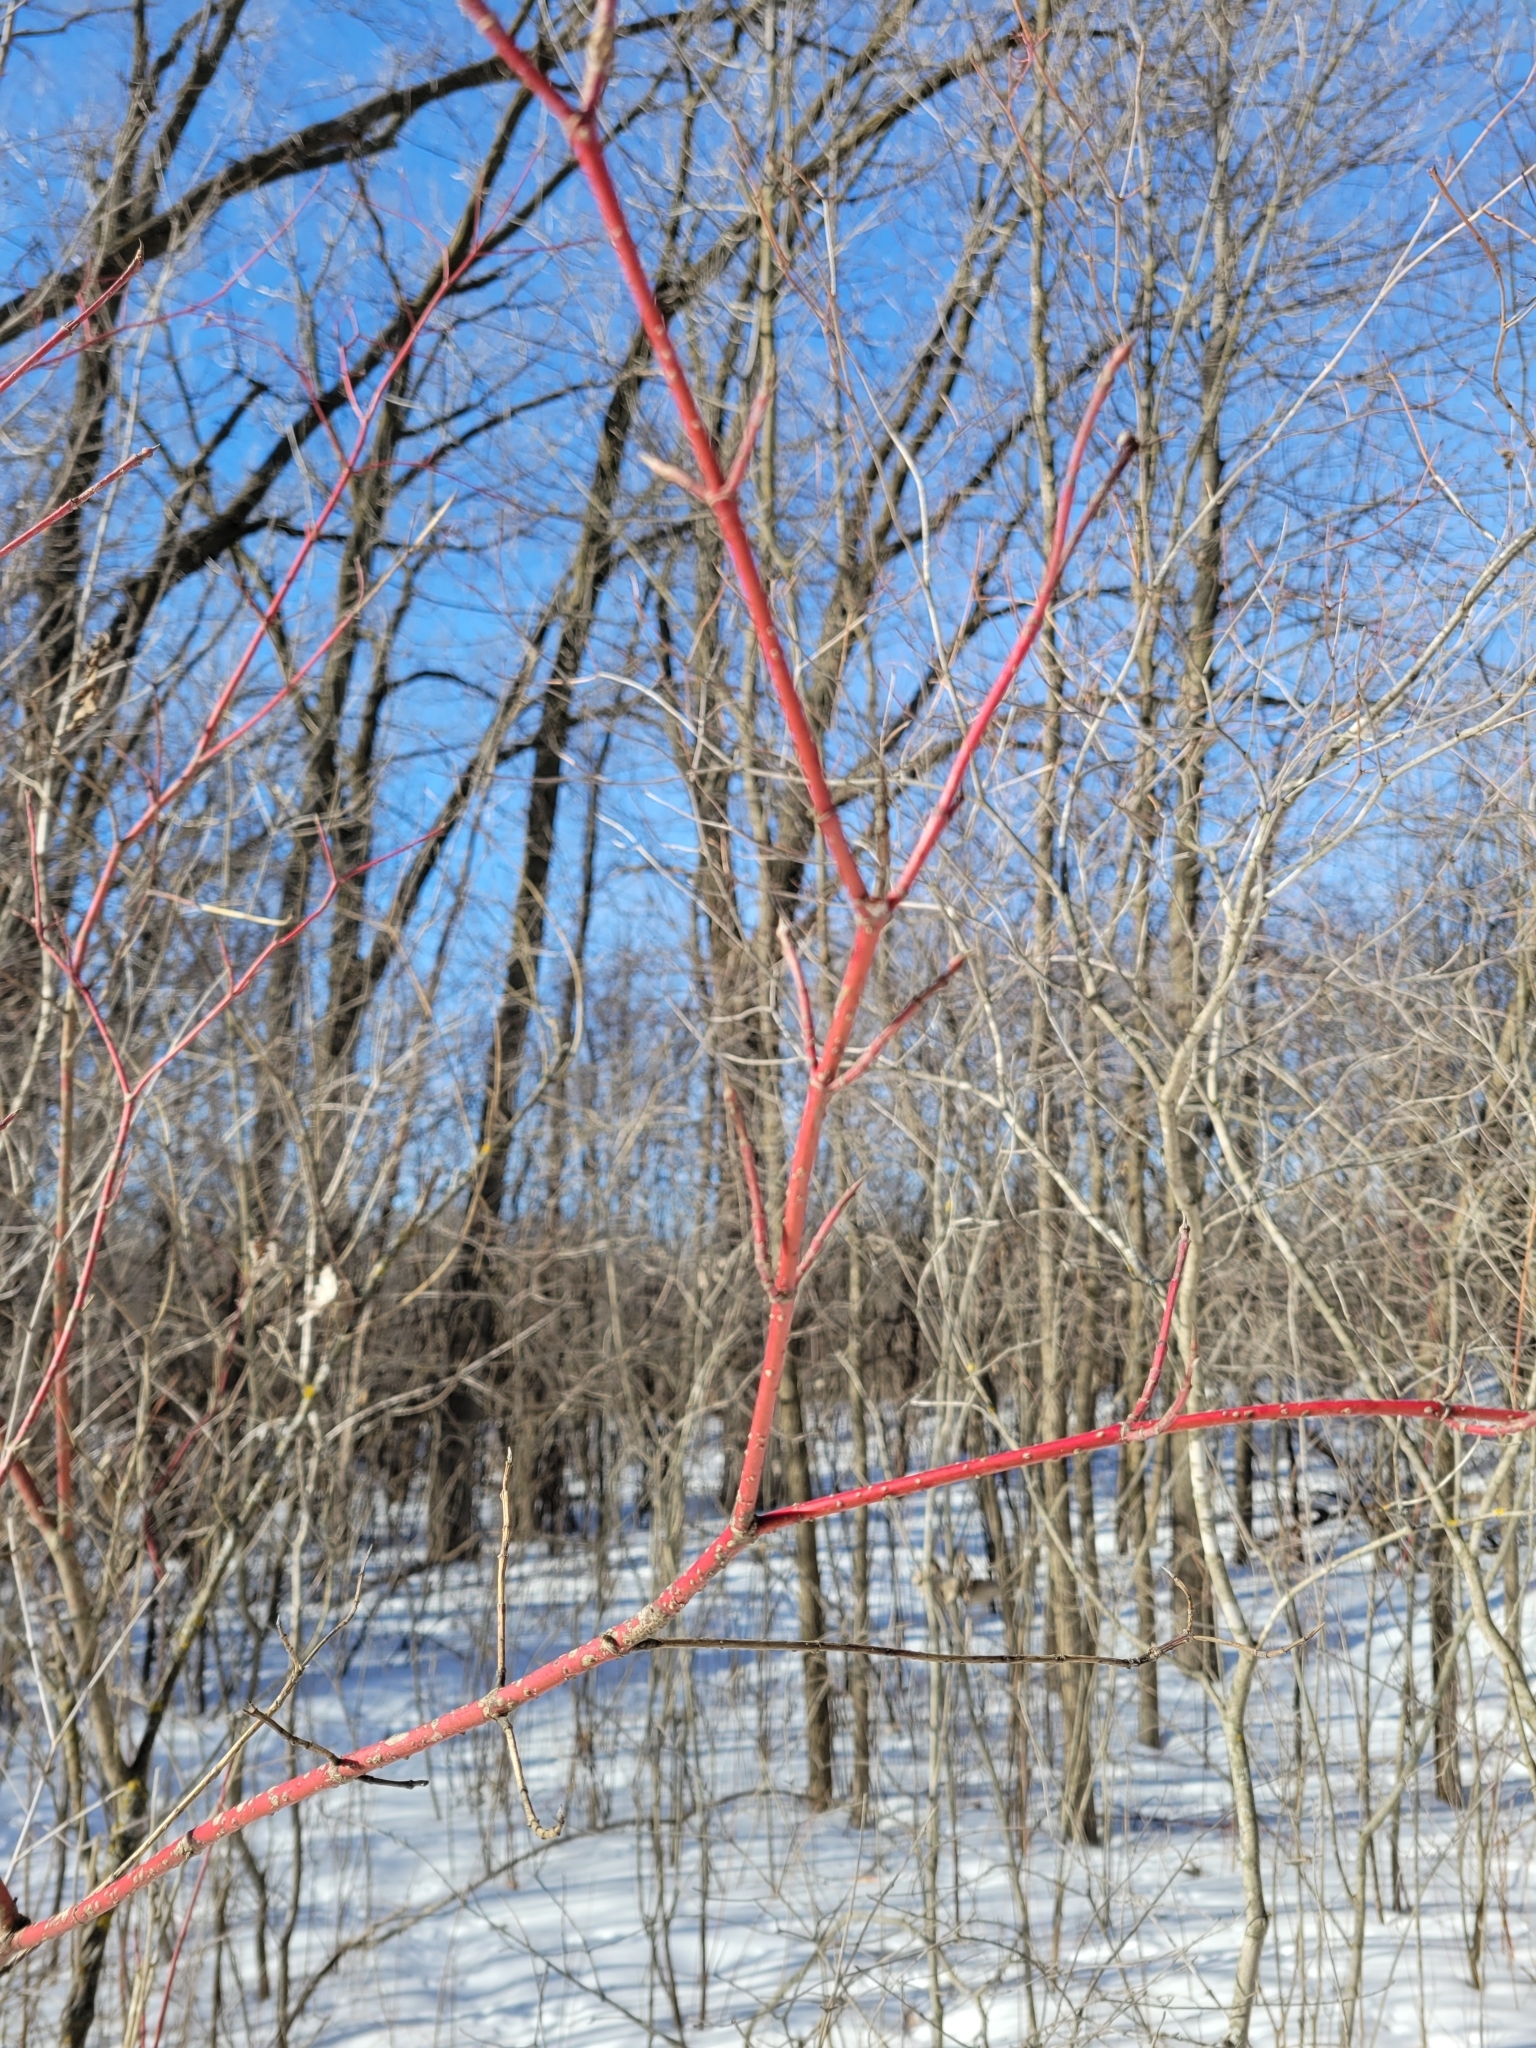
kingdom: Plantae
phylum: Tracheophyta
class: Magnoliopsida
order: Cornales
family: Cornaceae
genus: Cornus
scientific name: Cornus sericea
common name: Red-osier dogwood
